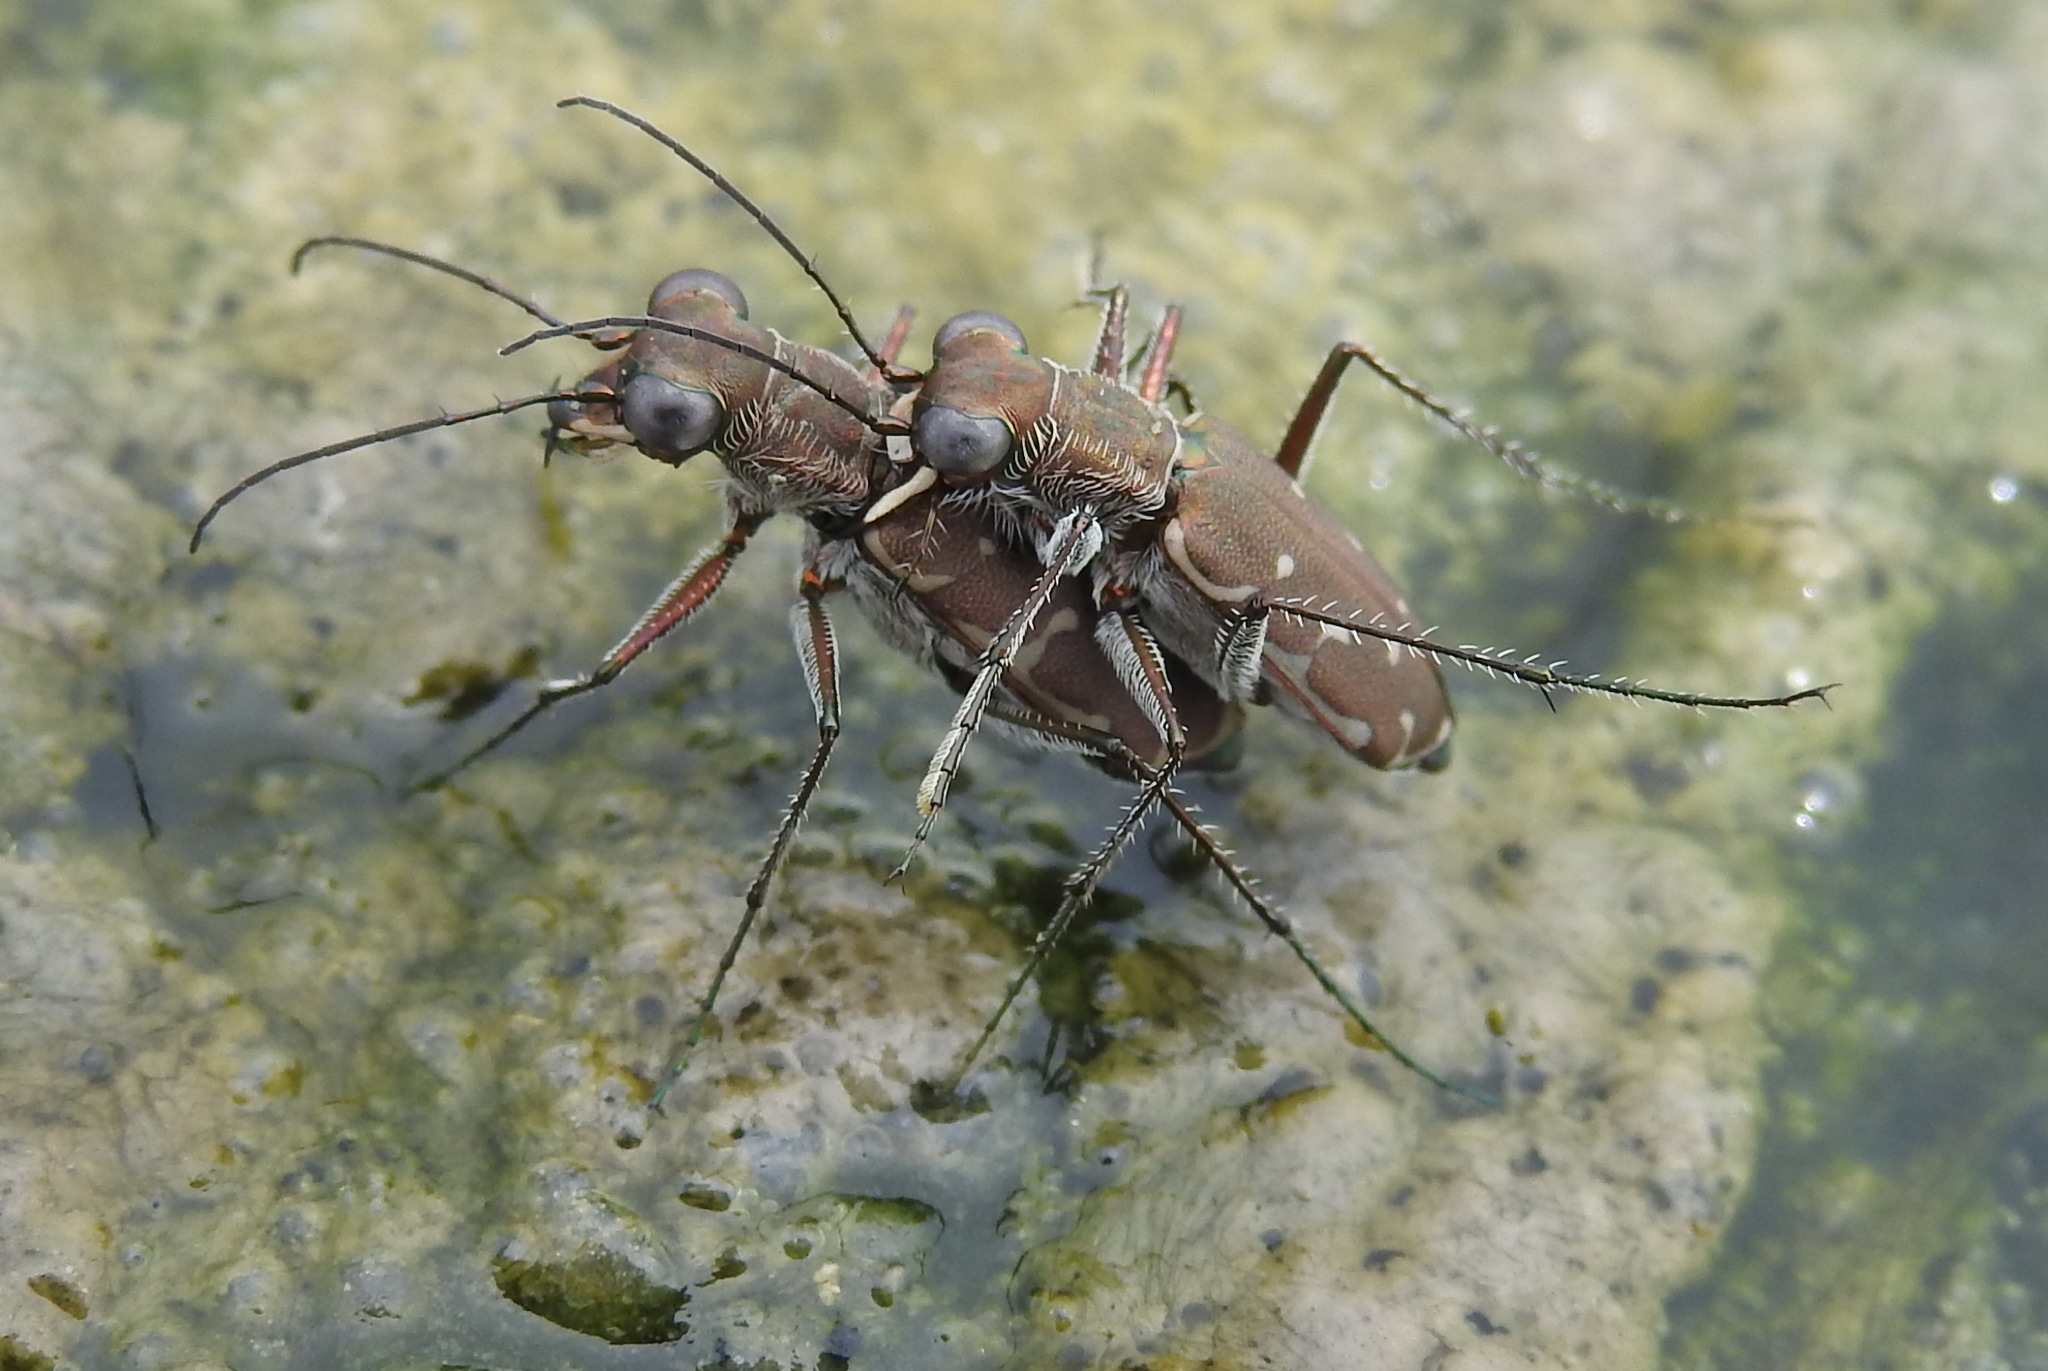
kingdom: Animalia
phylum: Arthropoda
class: Insecta
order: Coleoptera
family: Carabidae
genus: Myriochila
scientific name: Myriochila melancholica
